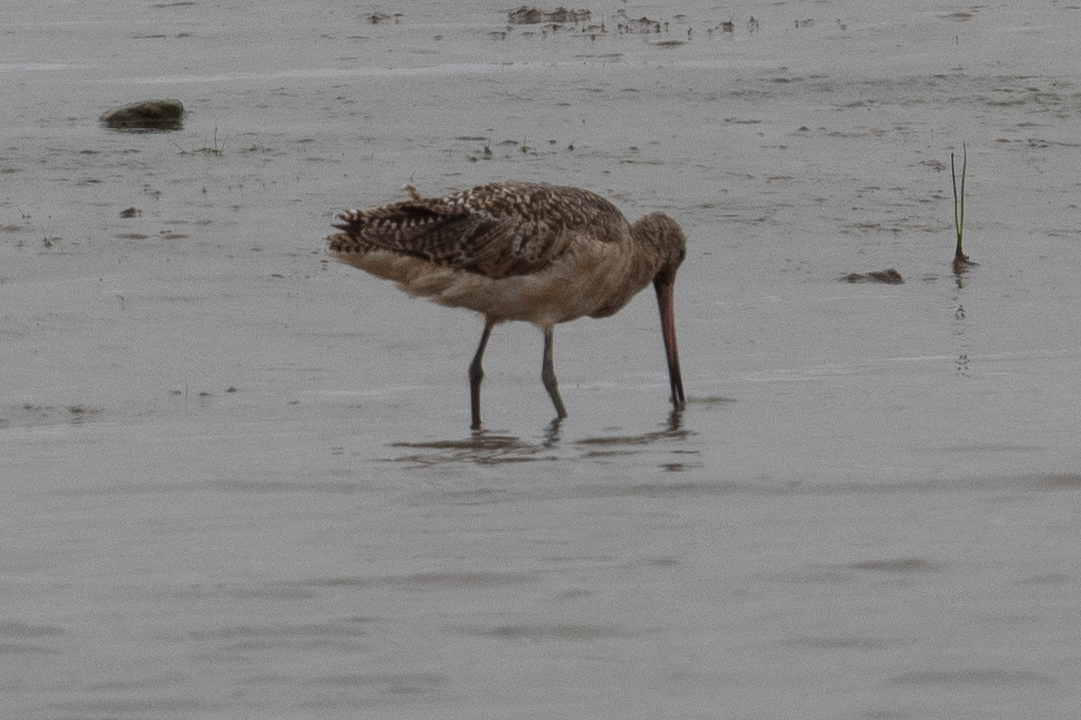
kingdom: Animalia
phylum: Chordata
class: Aves
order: Charadriiformes
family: Scolopacidae
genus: Limosa
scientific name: Limosa fedoa
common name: Marbled godwit
